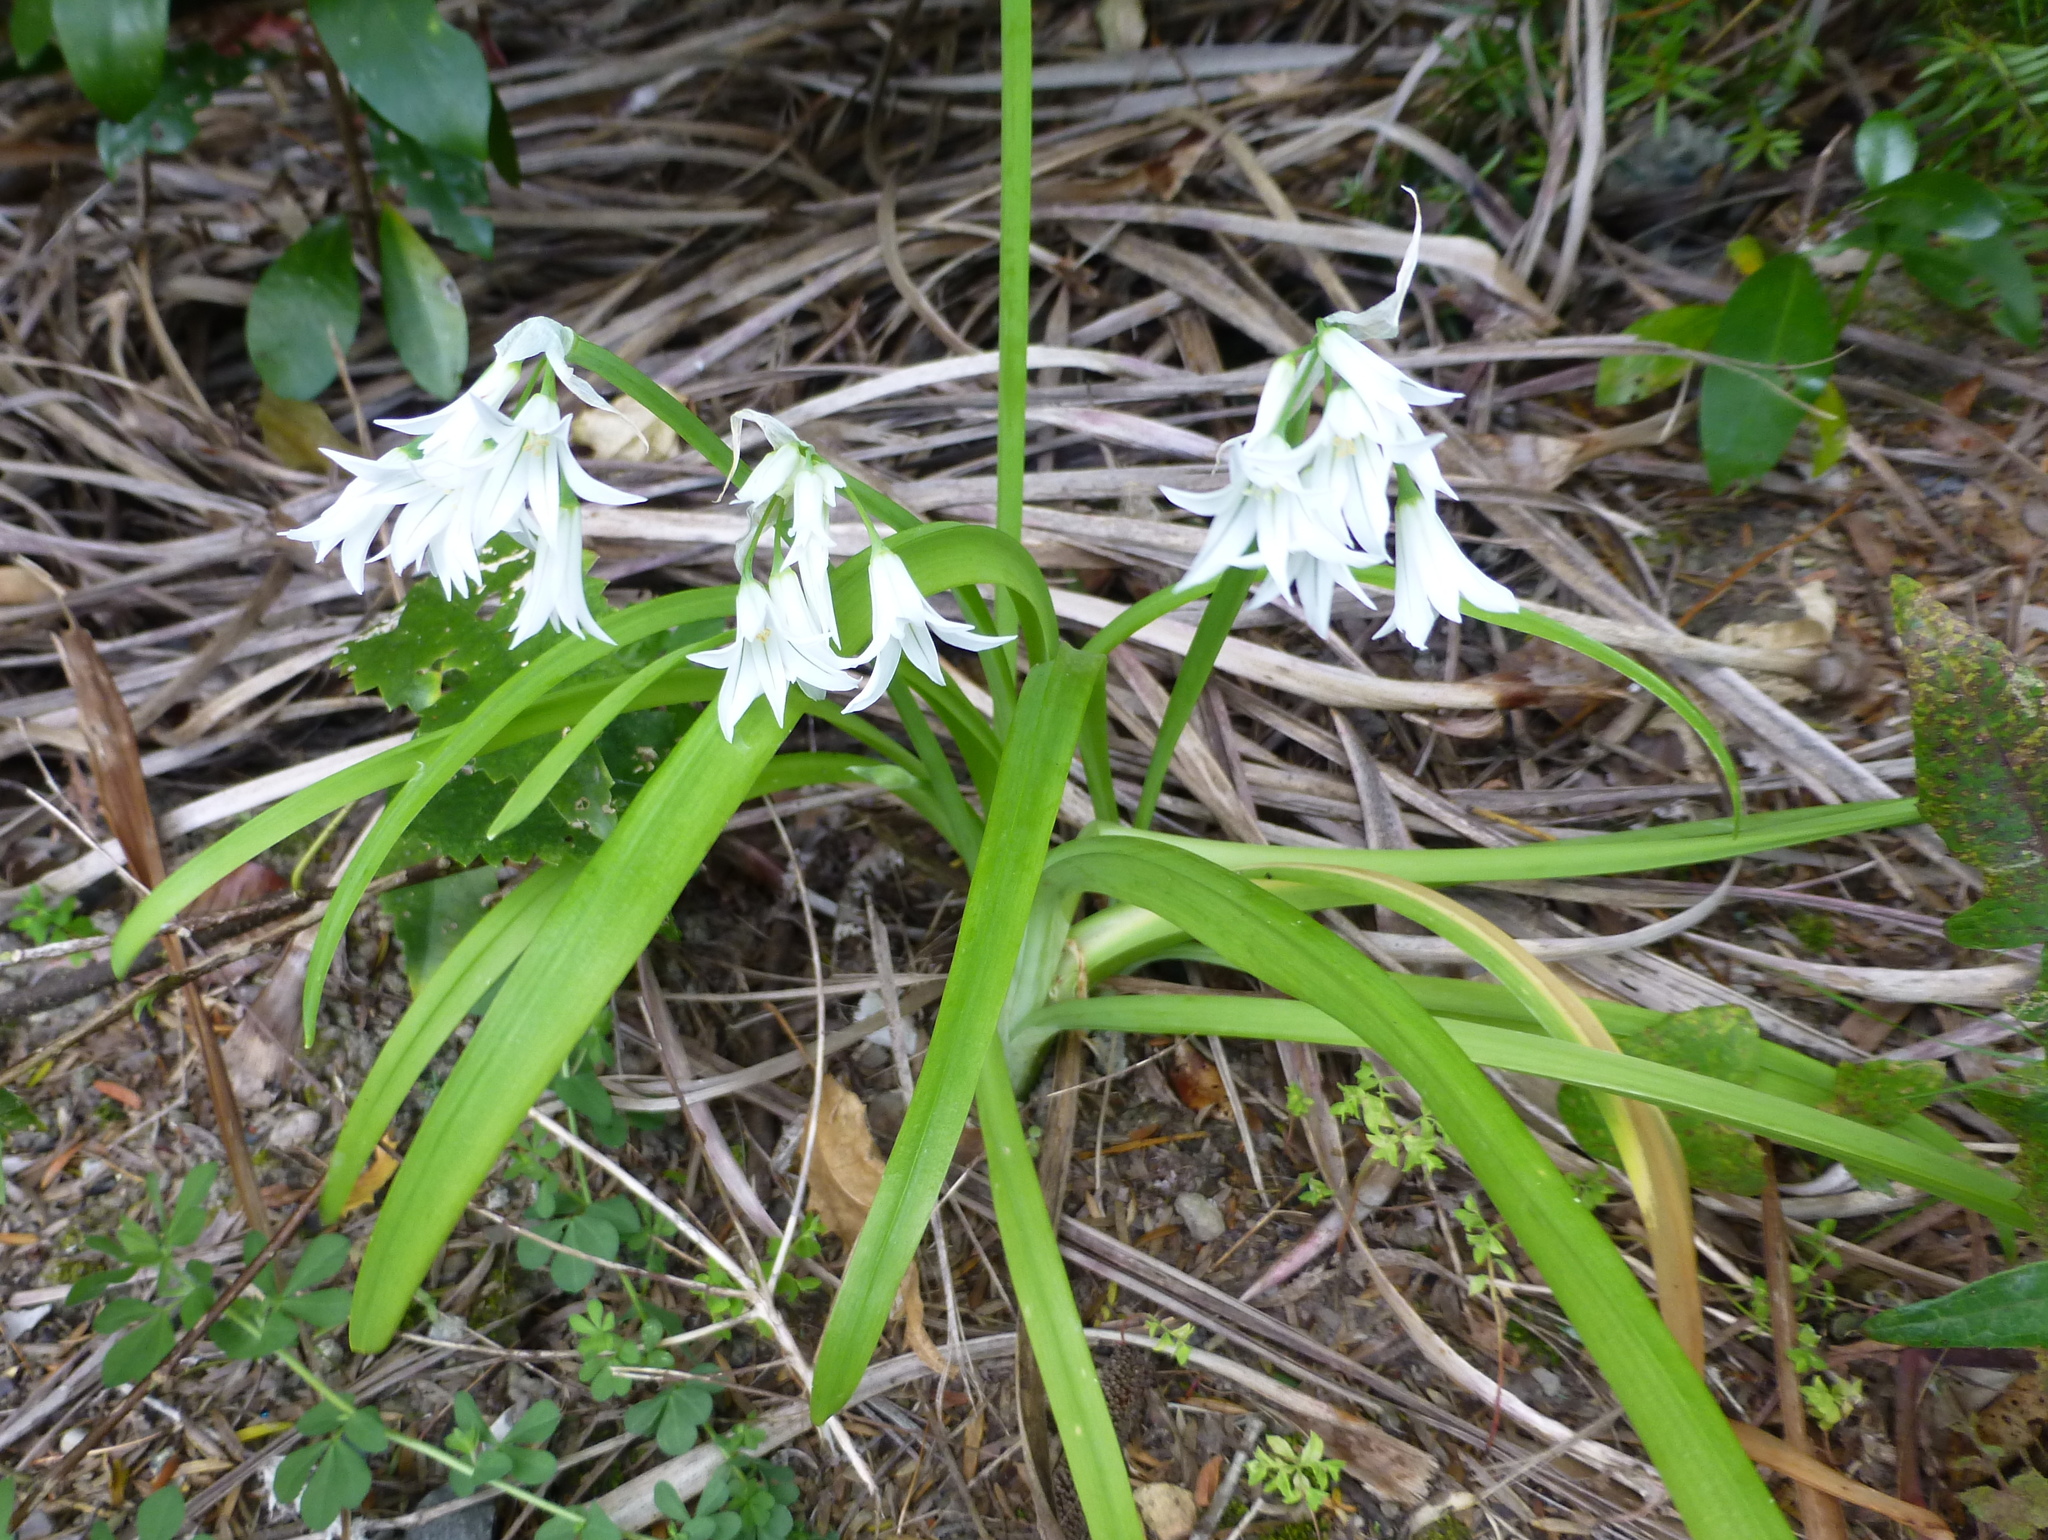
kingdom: Plantae
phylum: Tracheophyta
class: Liliopsida
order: Asparagales
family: Amaryllidaceae
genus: Allium
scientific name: Allium triquetrum
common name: Three-cornered garlic
